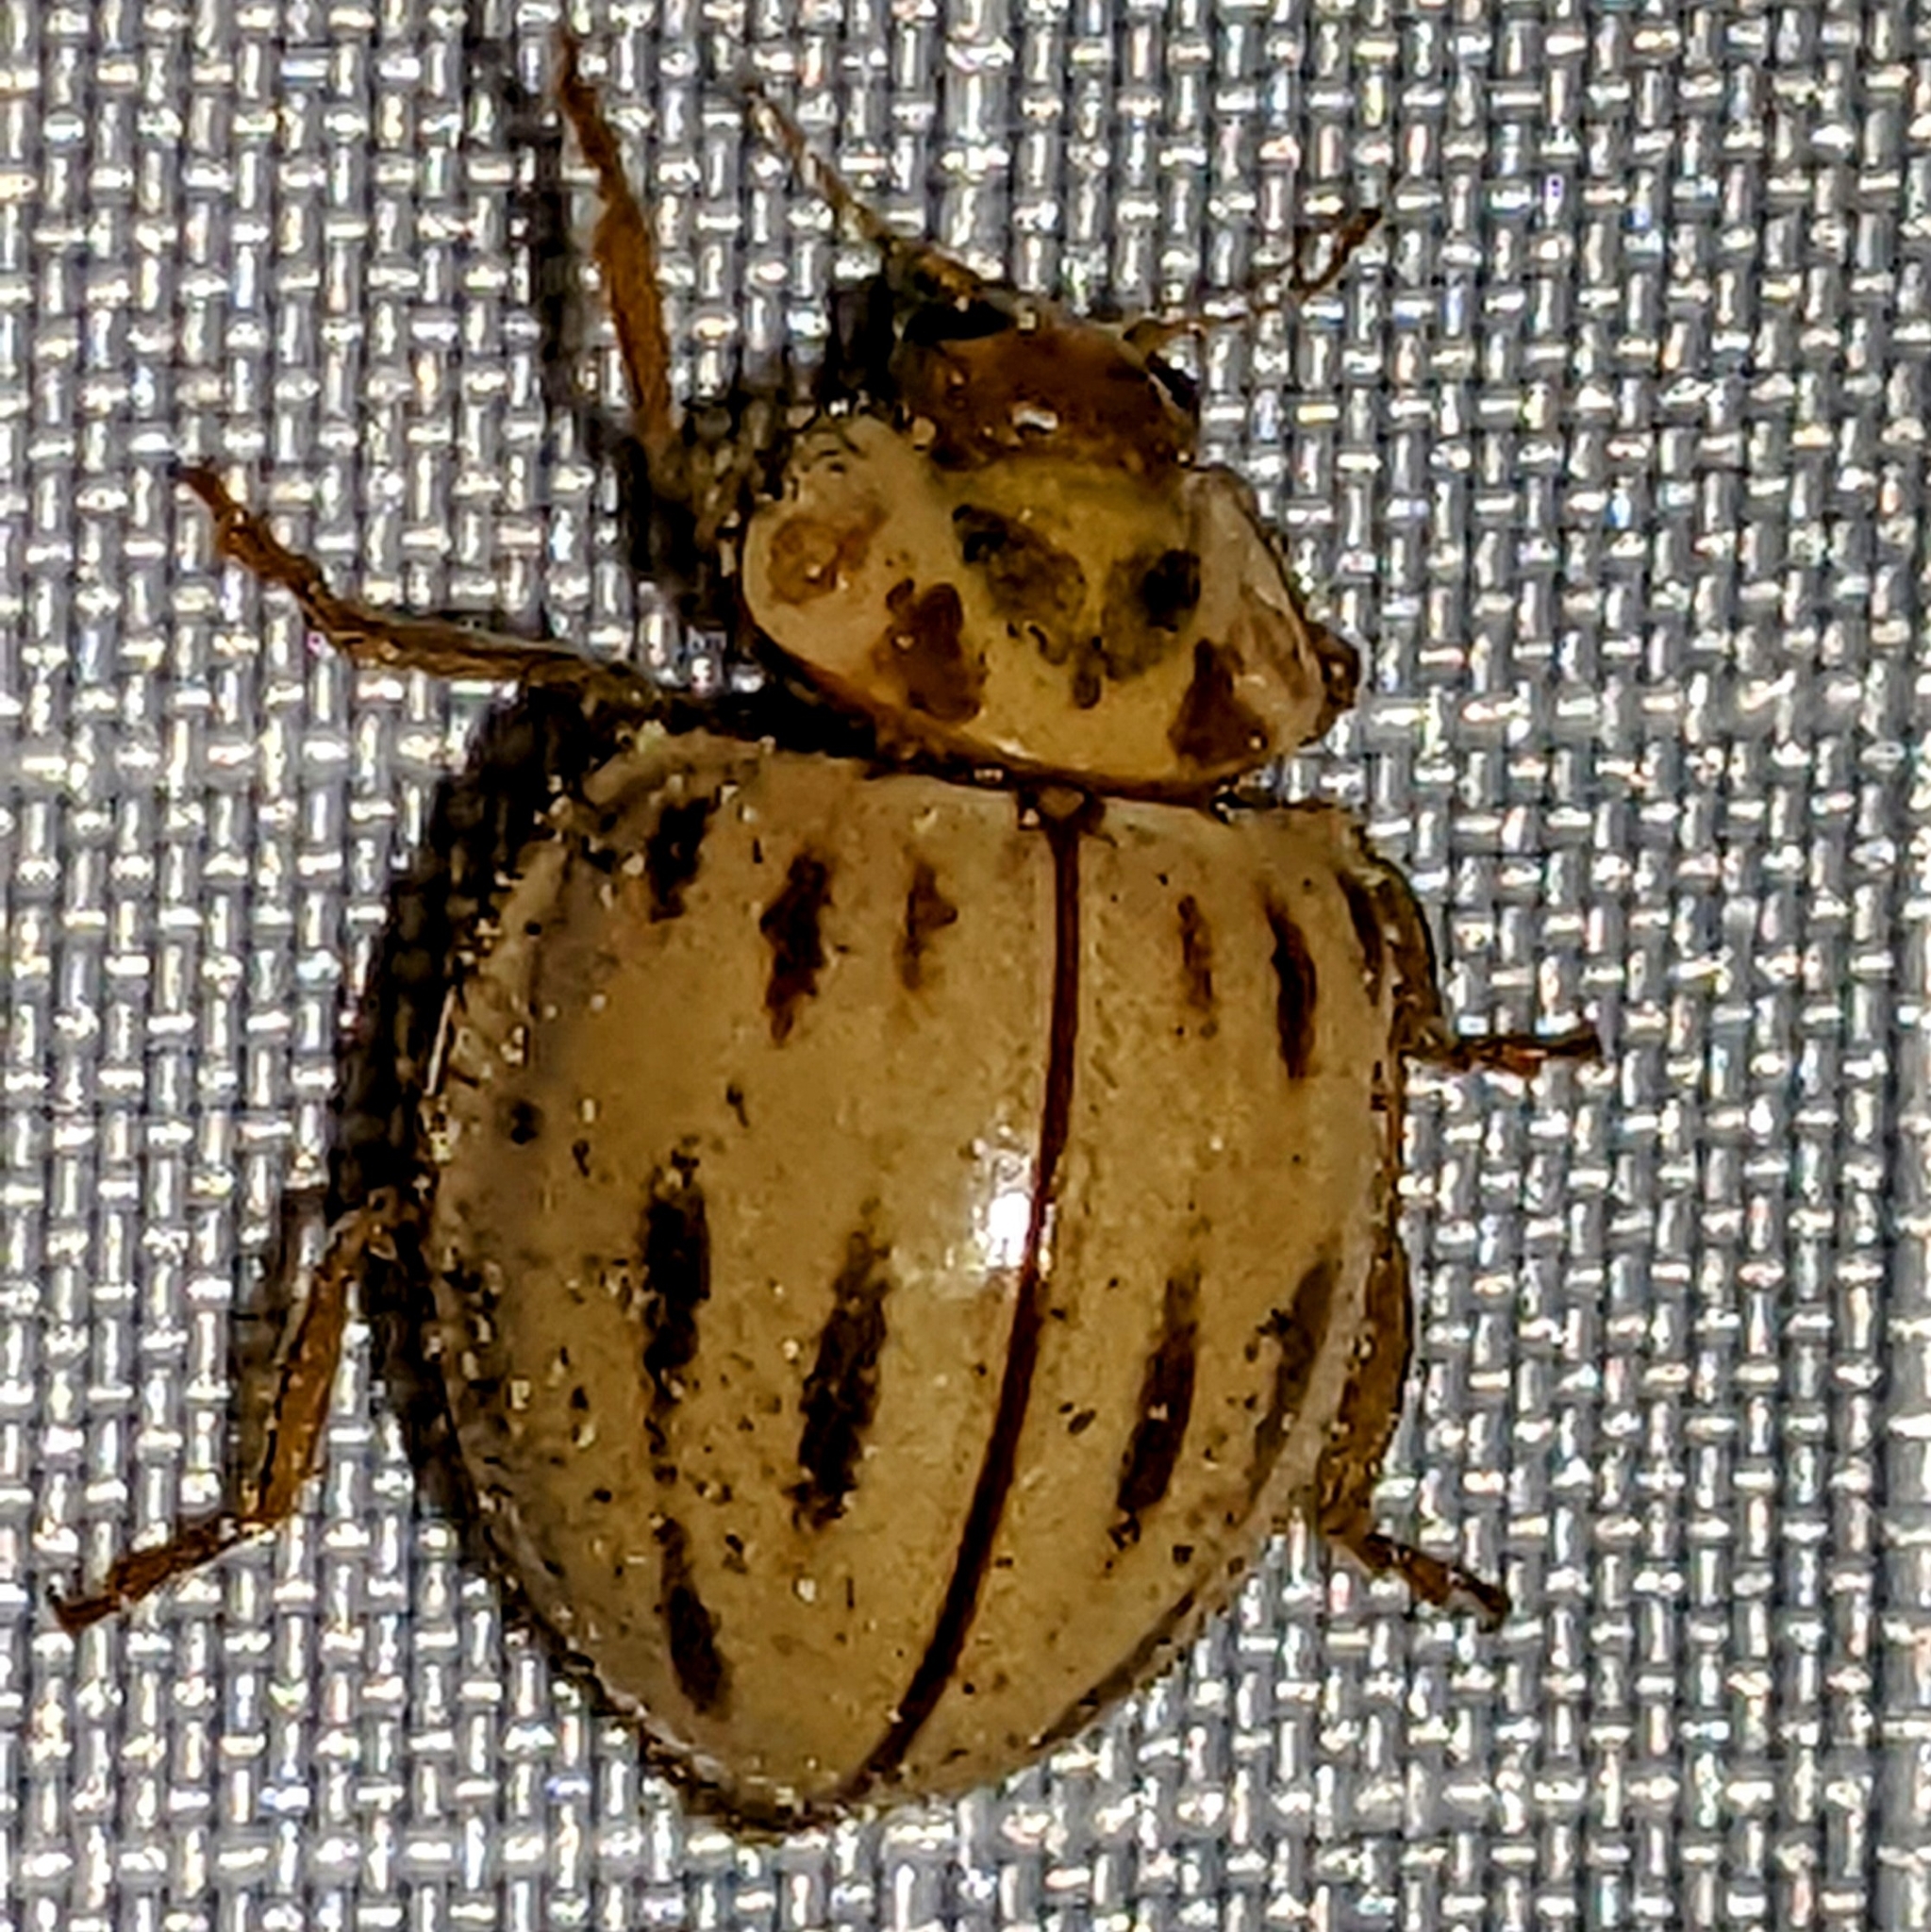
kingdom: Animalia
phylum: Arthropoda
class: Insecta
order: Coleoptera
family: Coccinellidae
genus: Myzia
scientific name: Myzia interrupta
